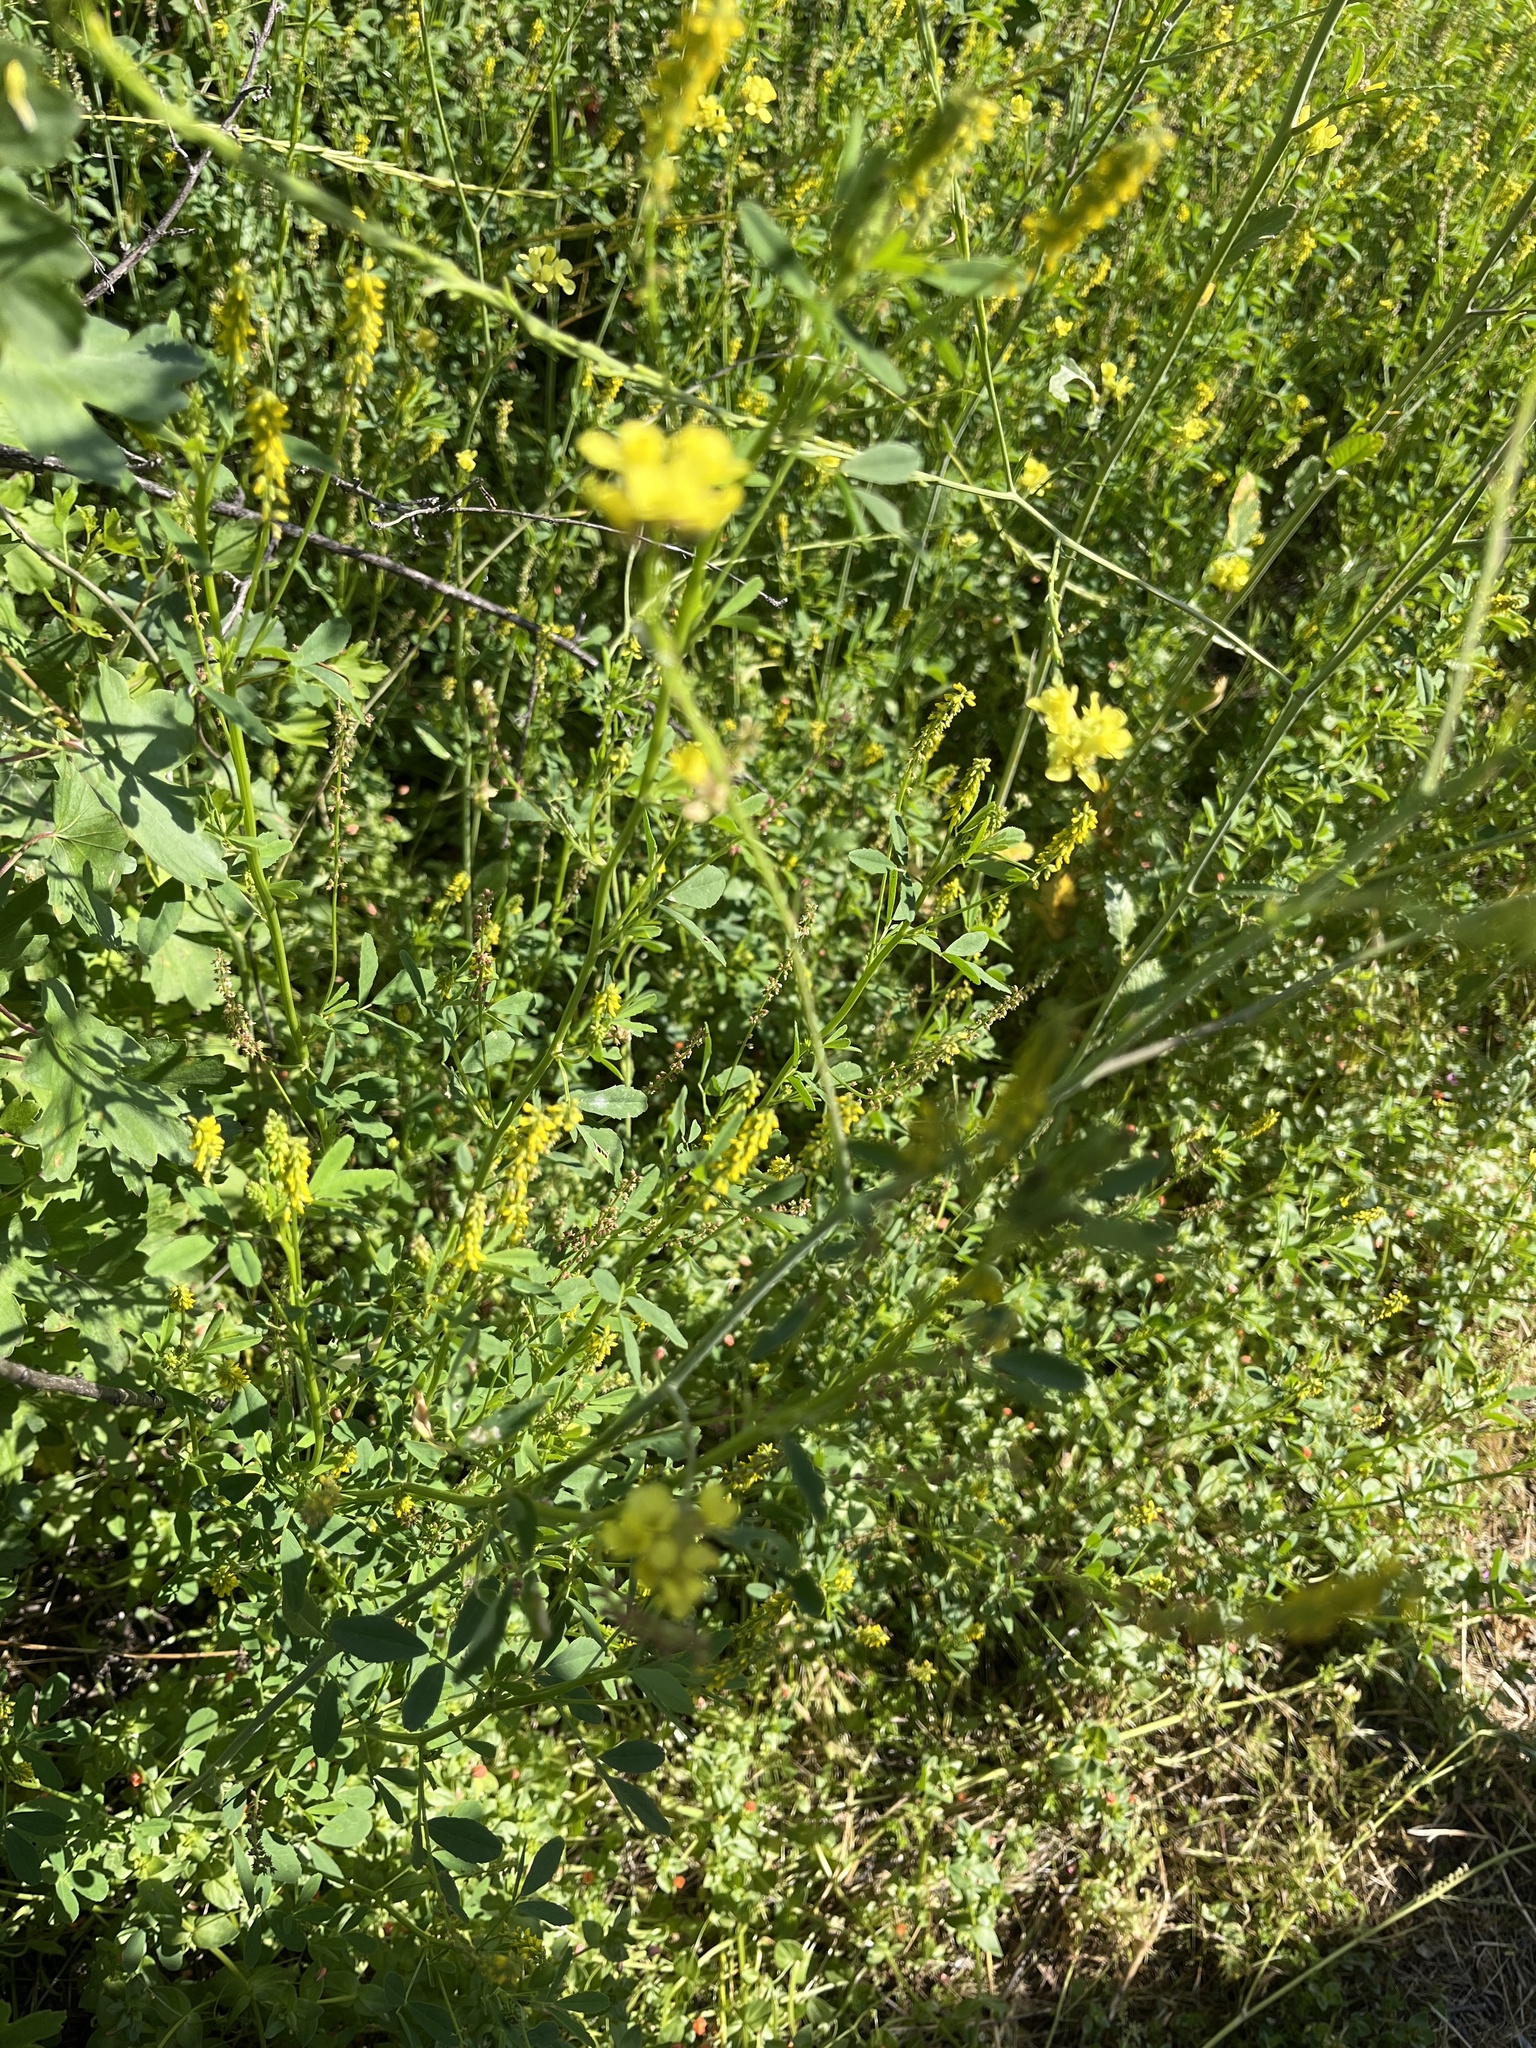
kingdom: Plantae
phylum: Tracheophyta
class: Magnoliopsida
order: Fabales
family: Fabaceae
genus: Melilotus
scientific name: Melilotus indicus
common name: Small melilot
